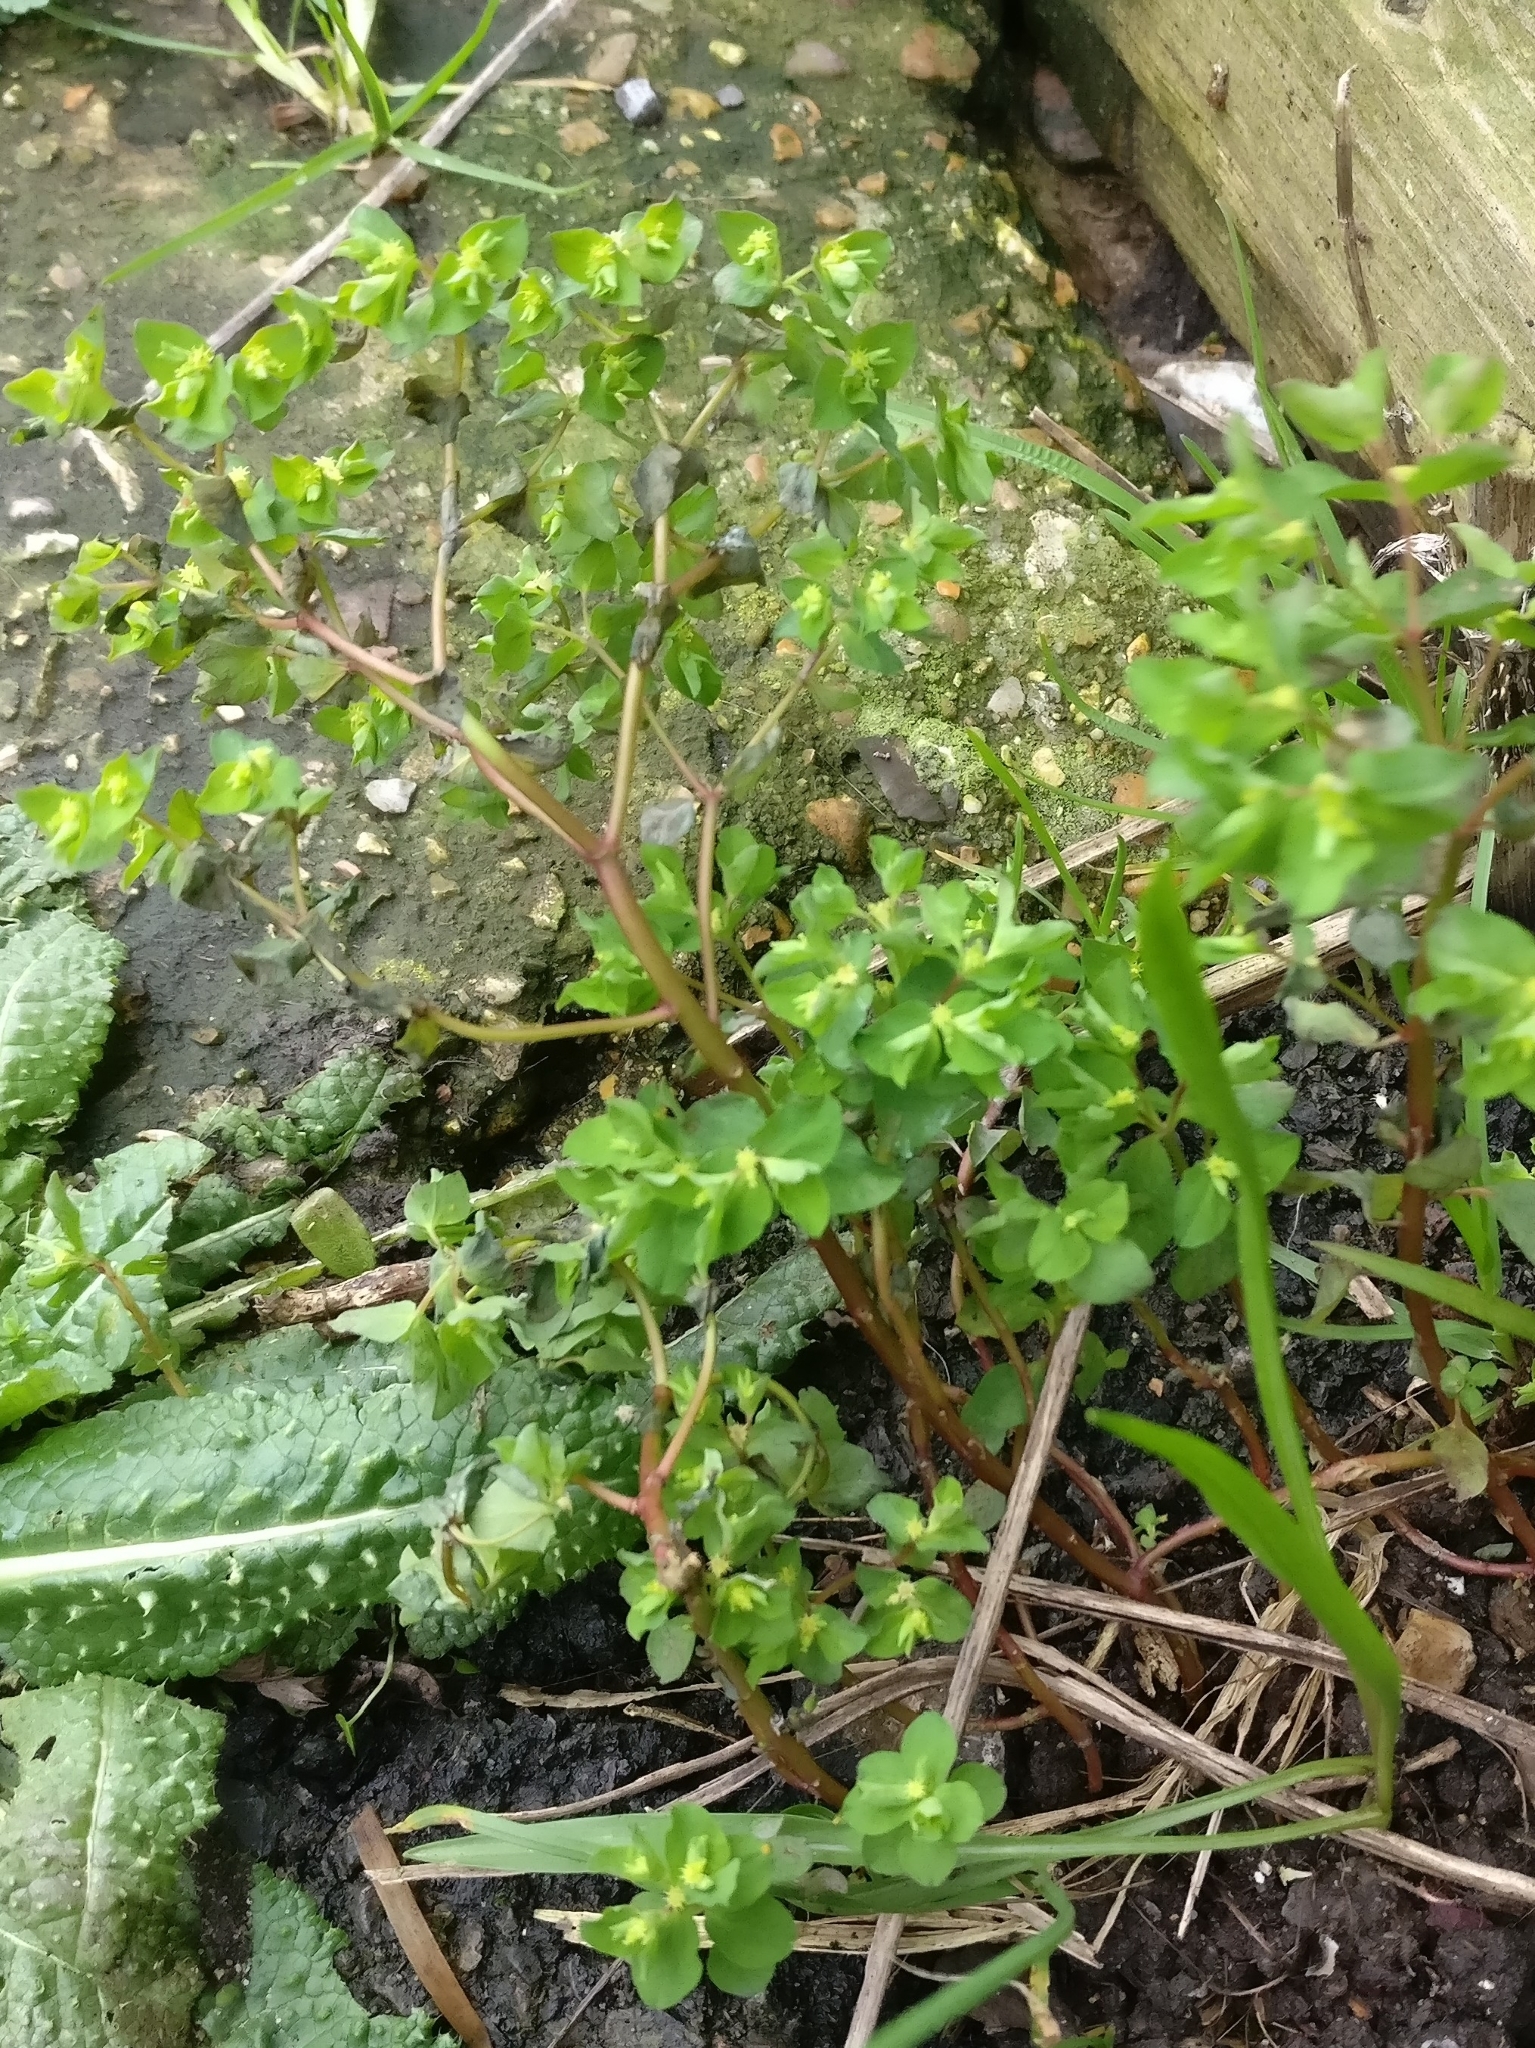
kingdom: Plantae
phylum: Tracheophyta
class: Magnoliopsida
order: Malpighiales
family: Euphorbiaceae
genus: Euphorbia
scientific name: Euphorbia peplus
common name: Petty spurge
